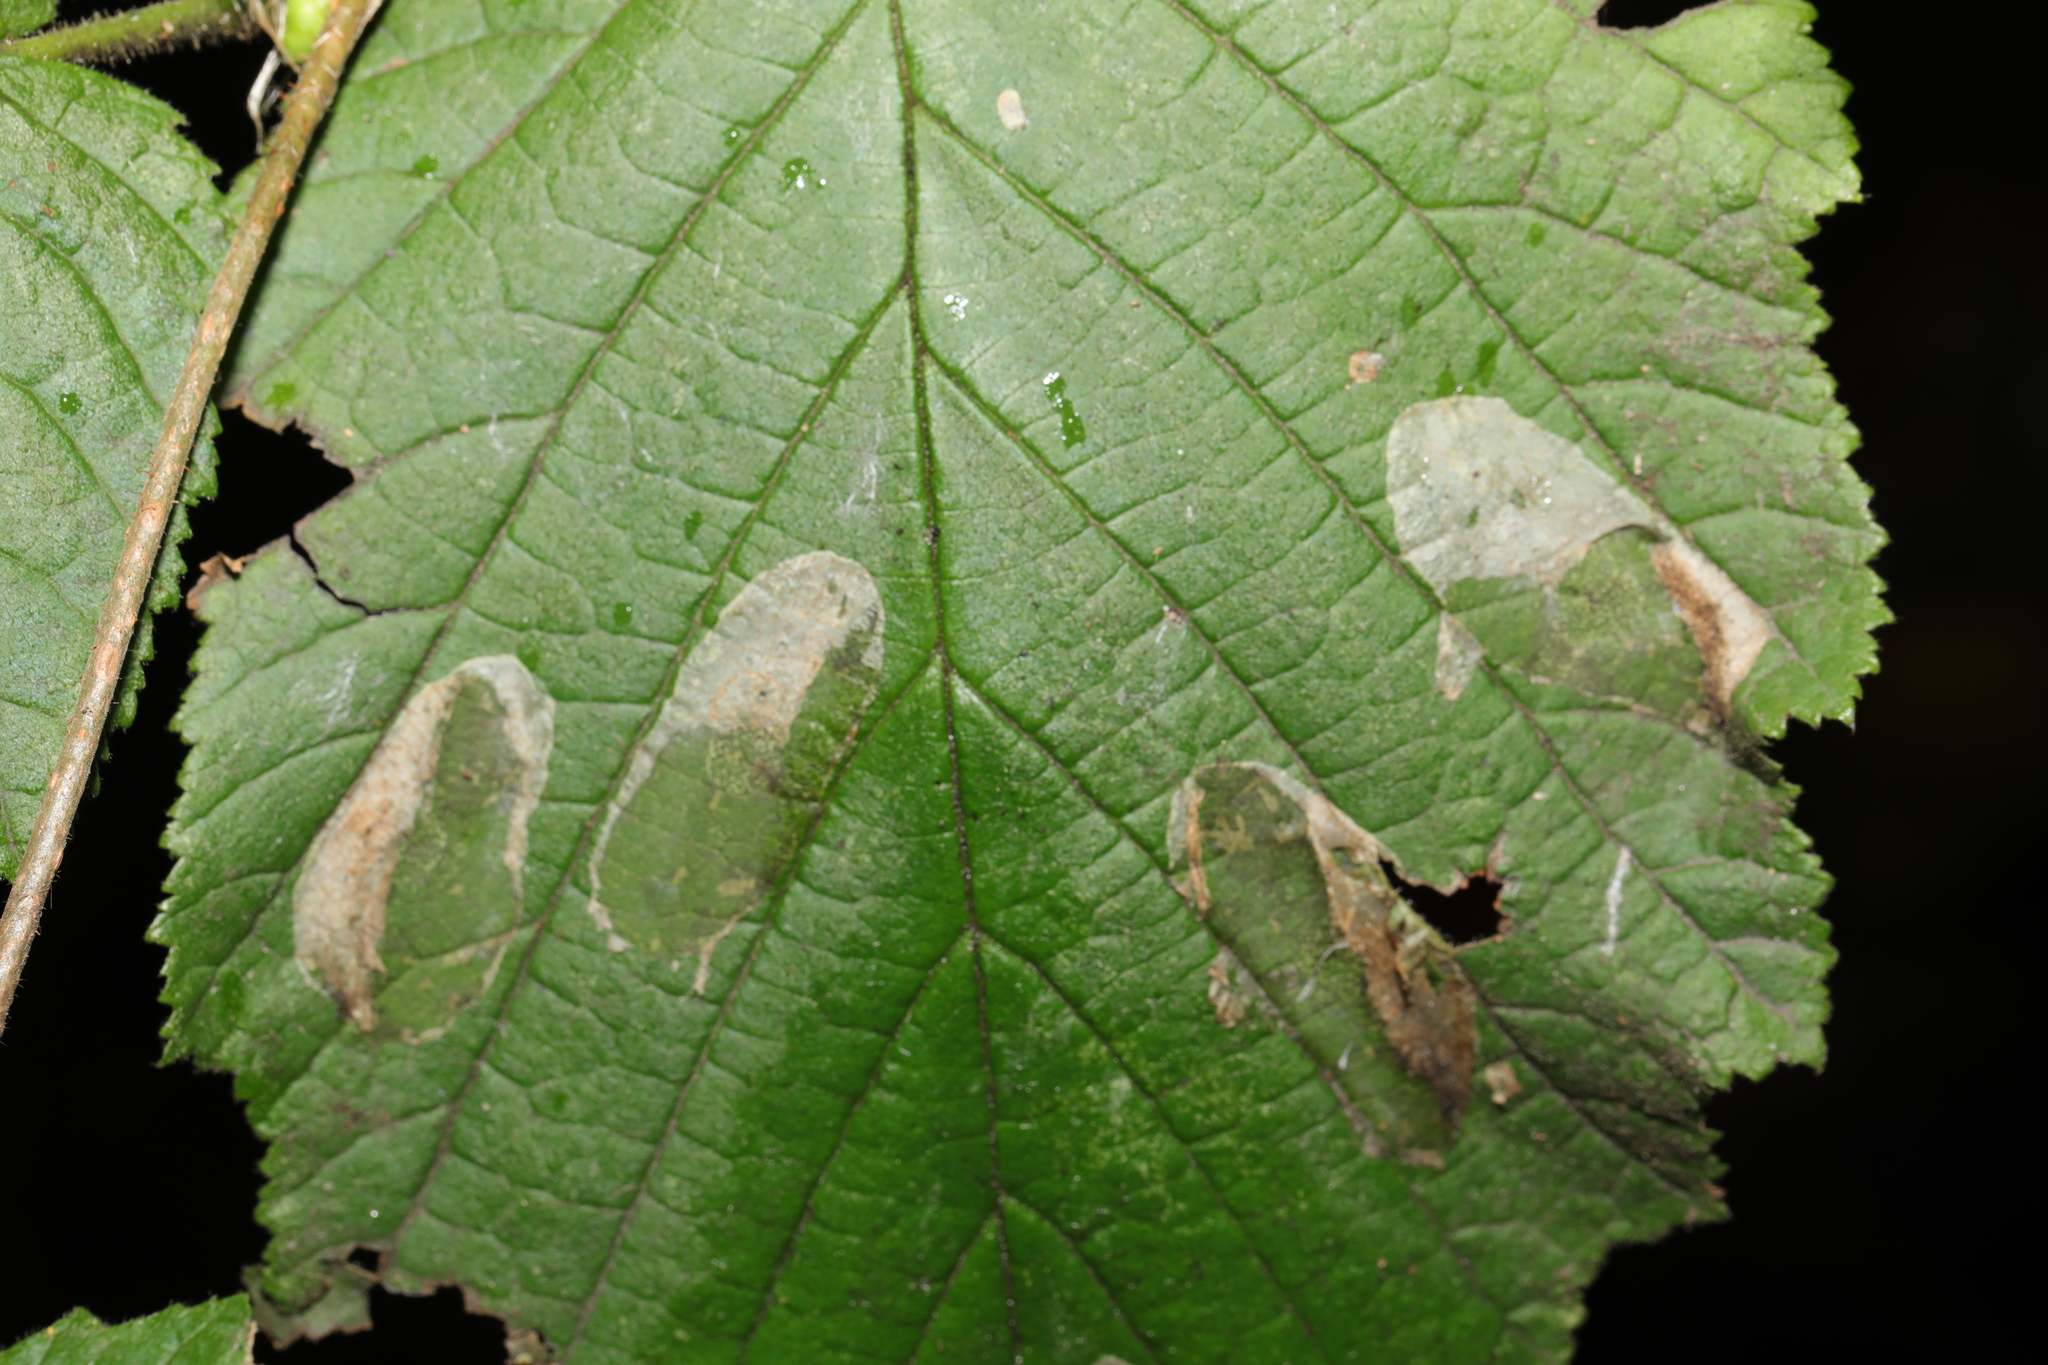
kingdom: Animalia
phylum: Arthropoda
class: Insecta
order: Lepidoptera
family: Gracillariidae
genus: Phyllonorycter
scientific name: Phyllonorycter coryli
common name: Nut-leaf blister moth
